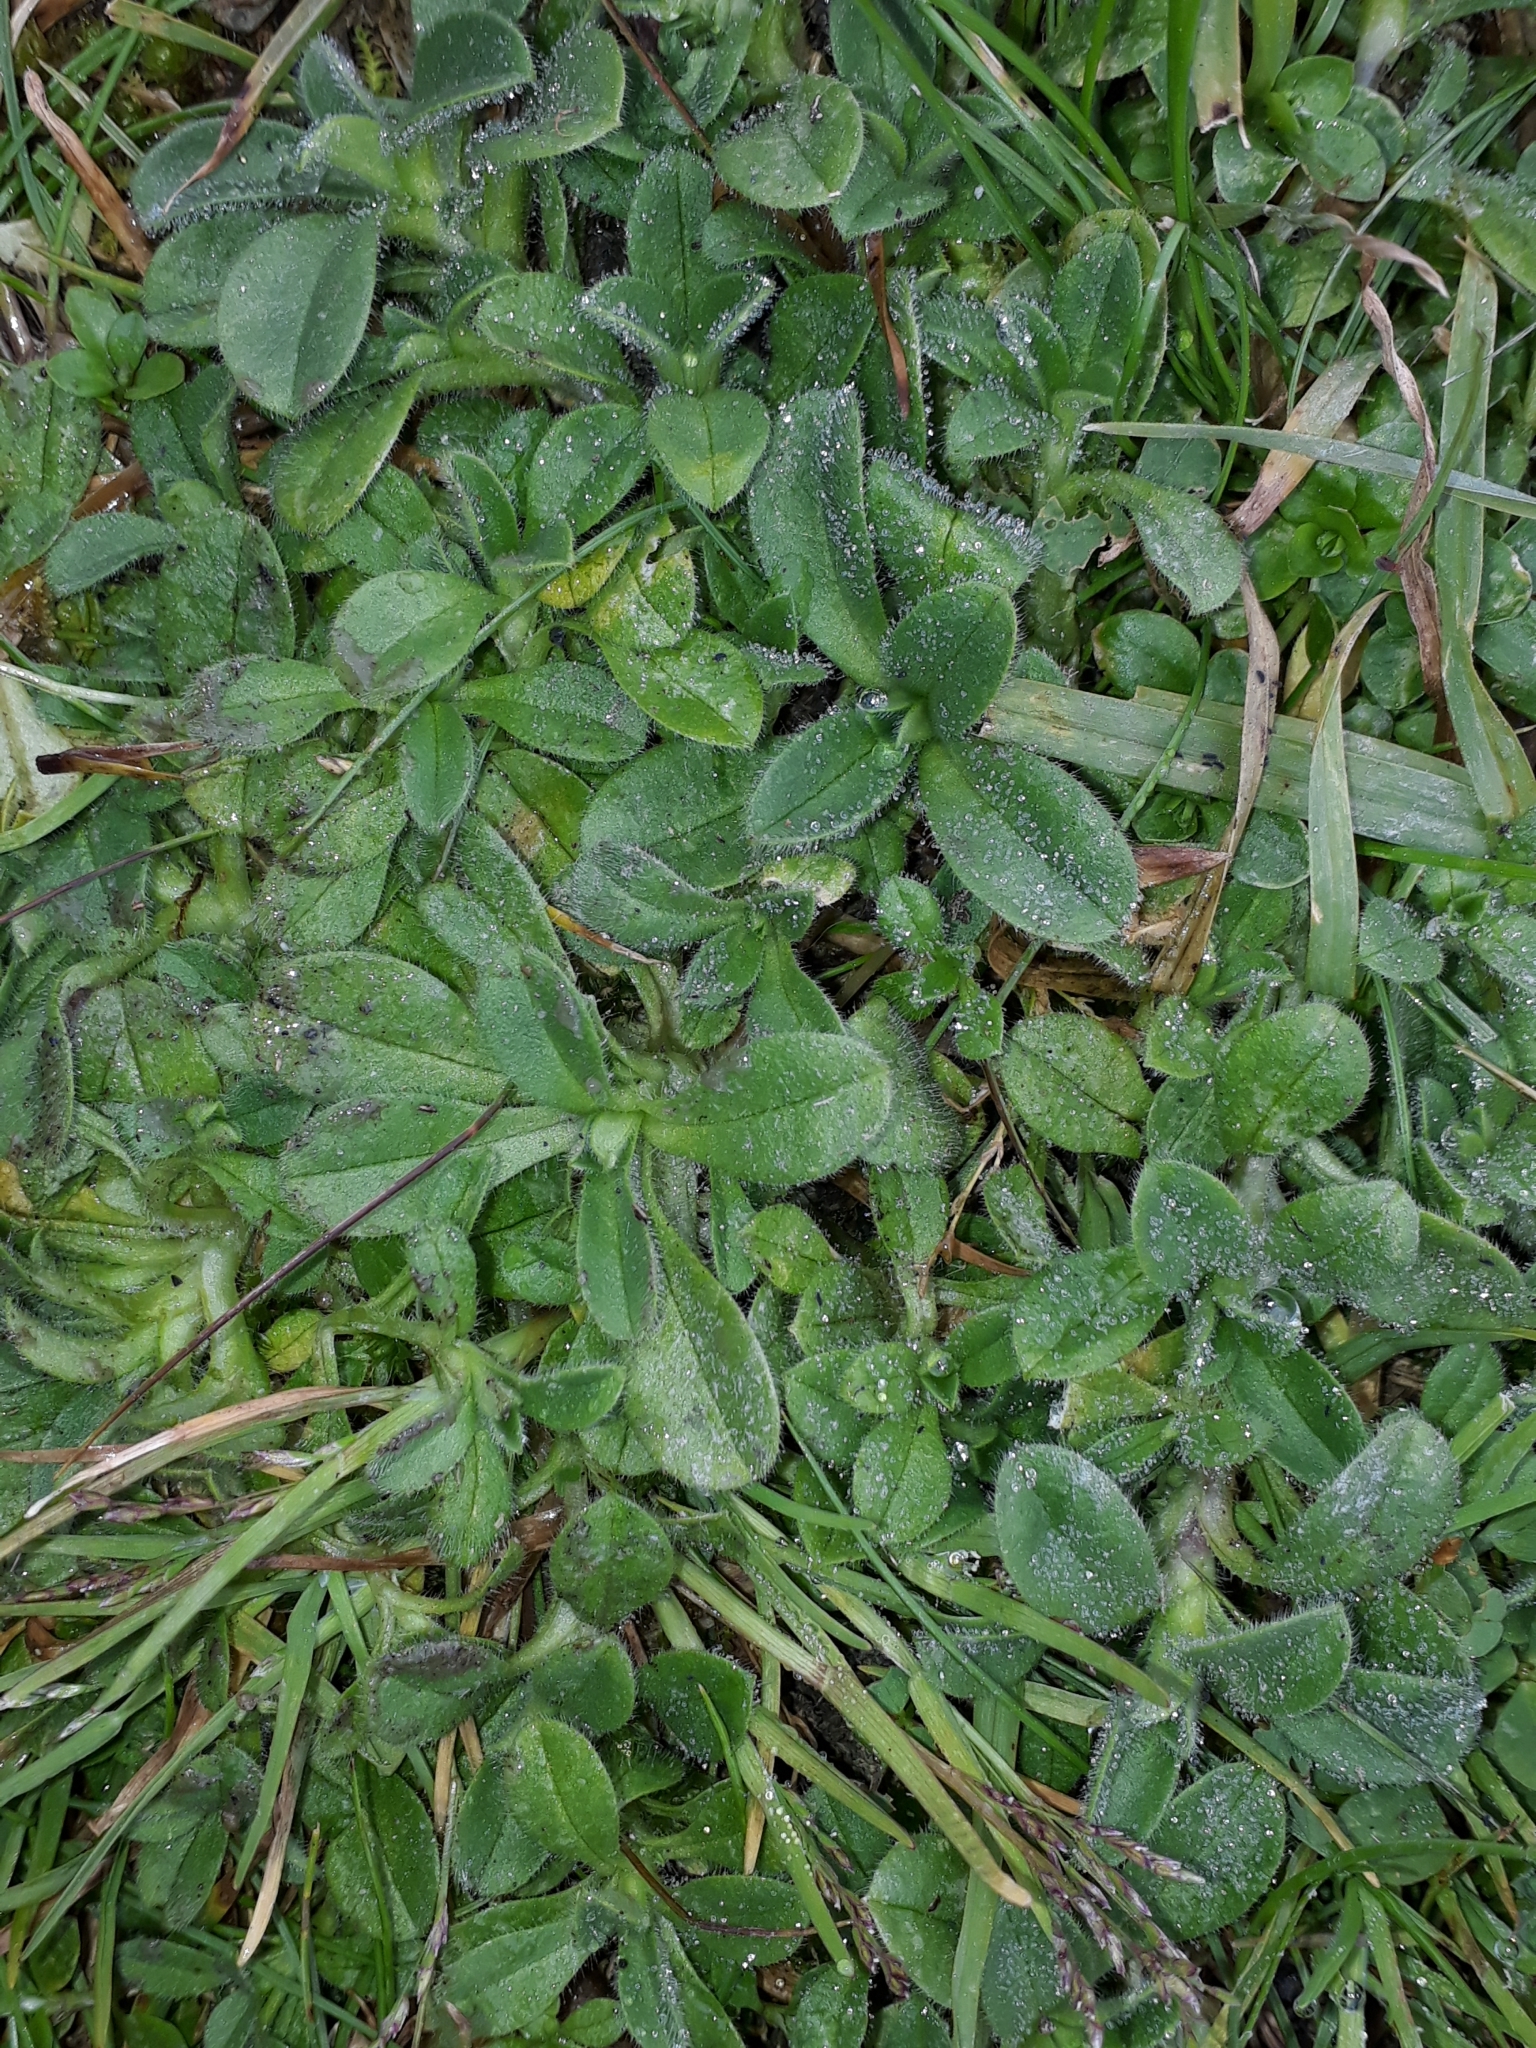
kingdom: Plantae
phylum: Tracheophyta
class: Magnoliopsida
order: Caryophyllales
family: Caryophyllaceae
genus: Cerastium
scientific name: Cerastium fontanum
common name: Common mouse-ear
